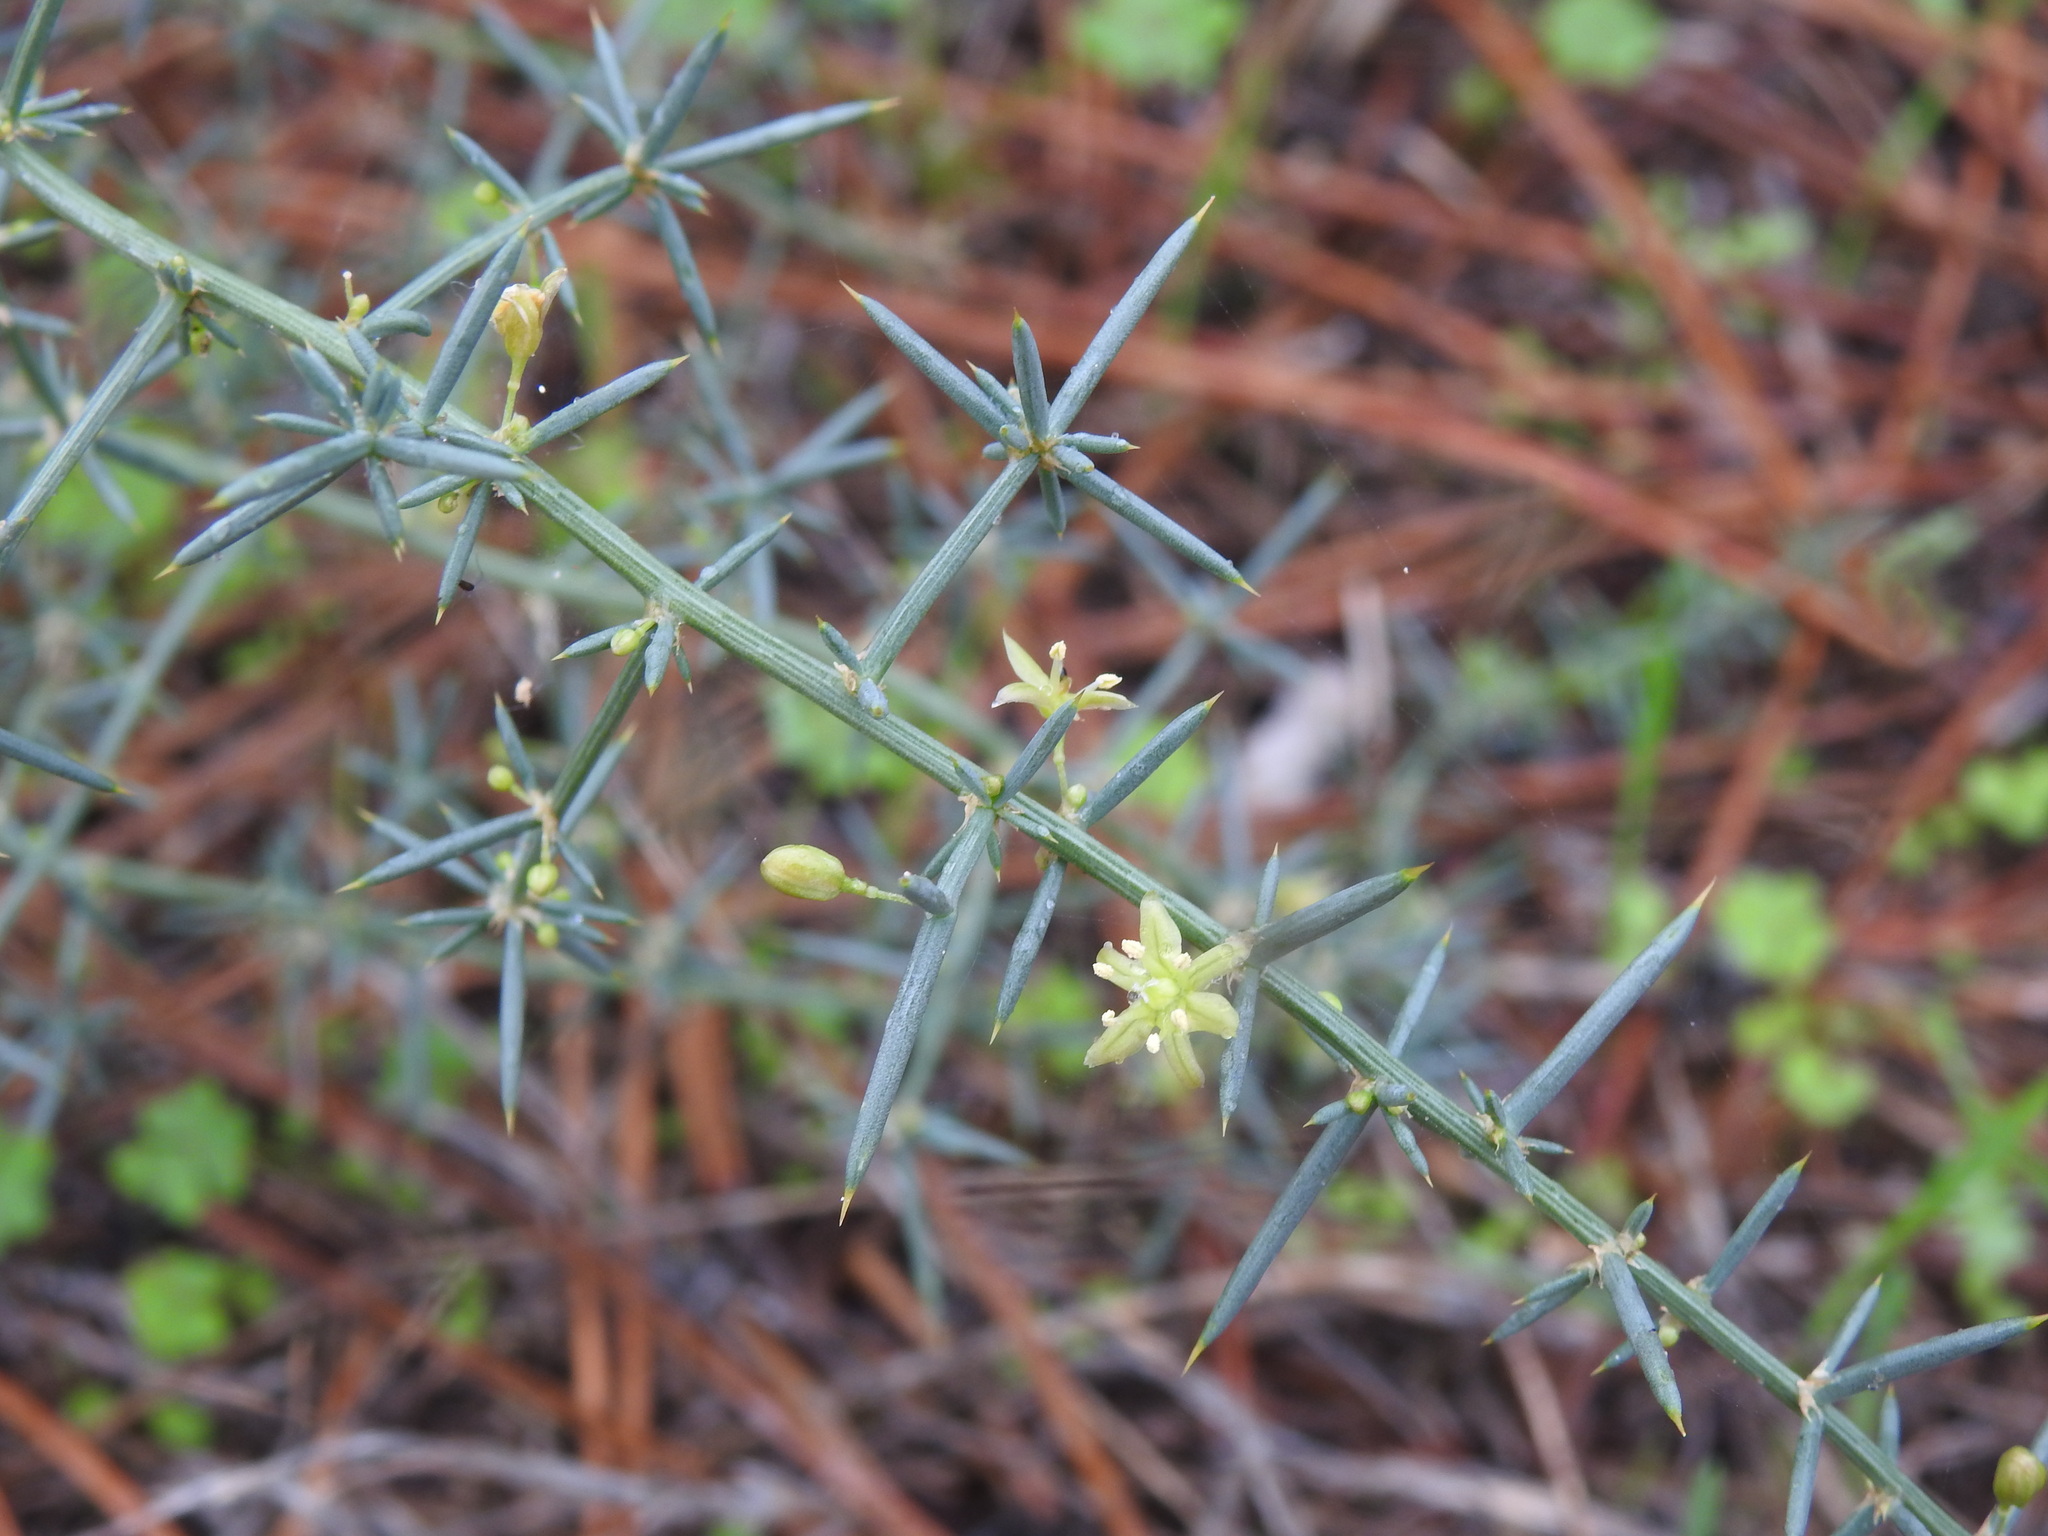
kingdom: Plantae
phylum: Tracheophyta
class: Liliopsida
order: Asparagales
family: Asparagaceae
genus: Asparagus
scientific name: Asparagus aphyllus
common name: Mediterranean asparagus
